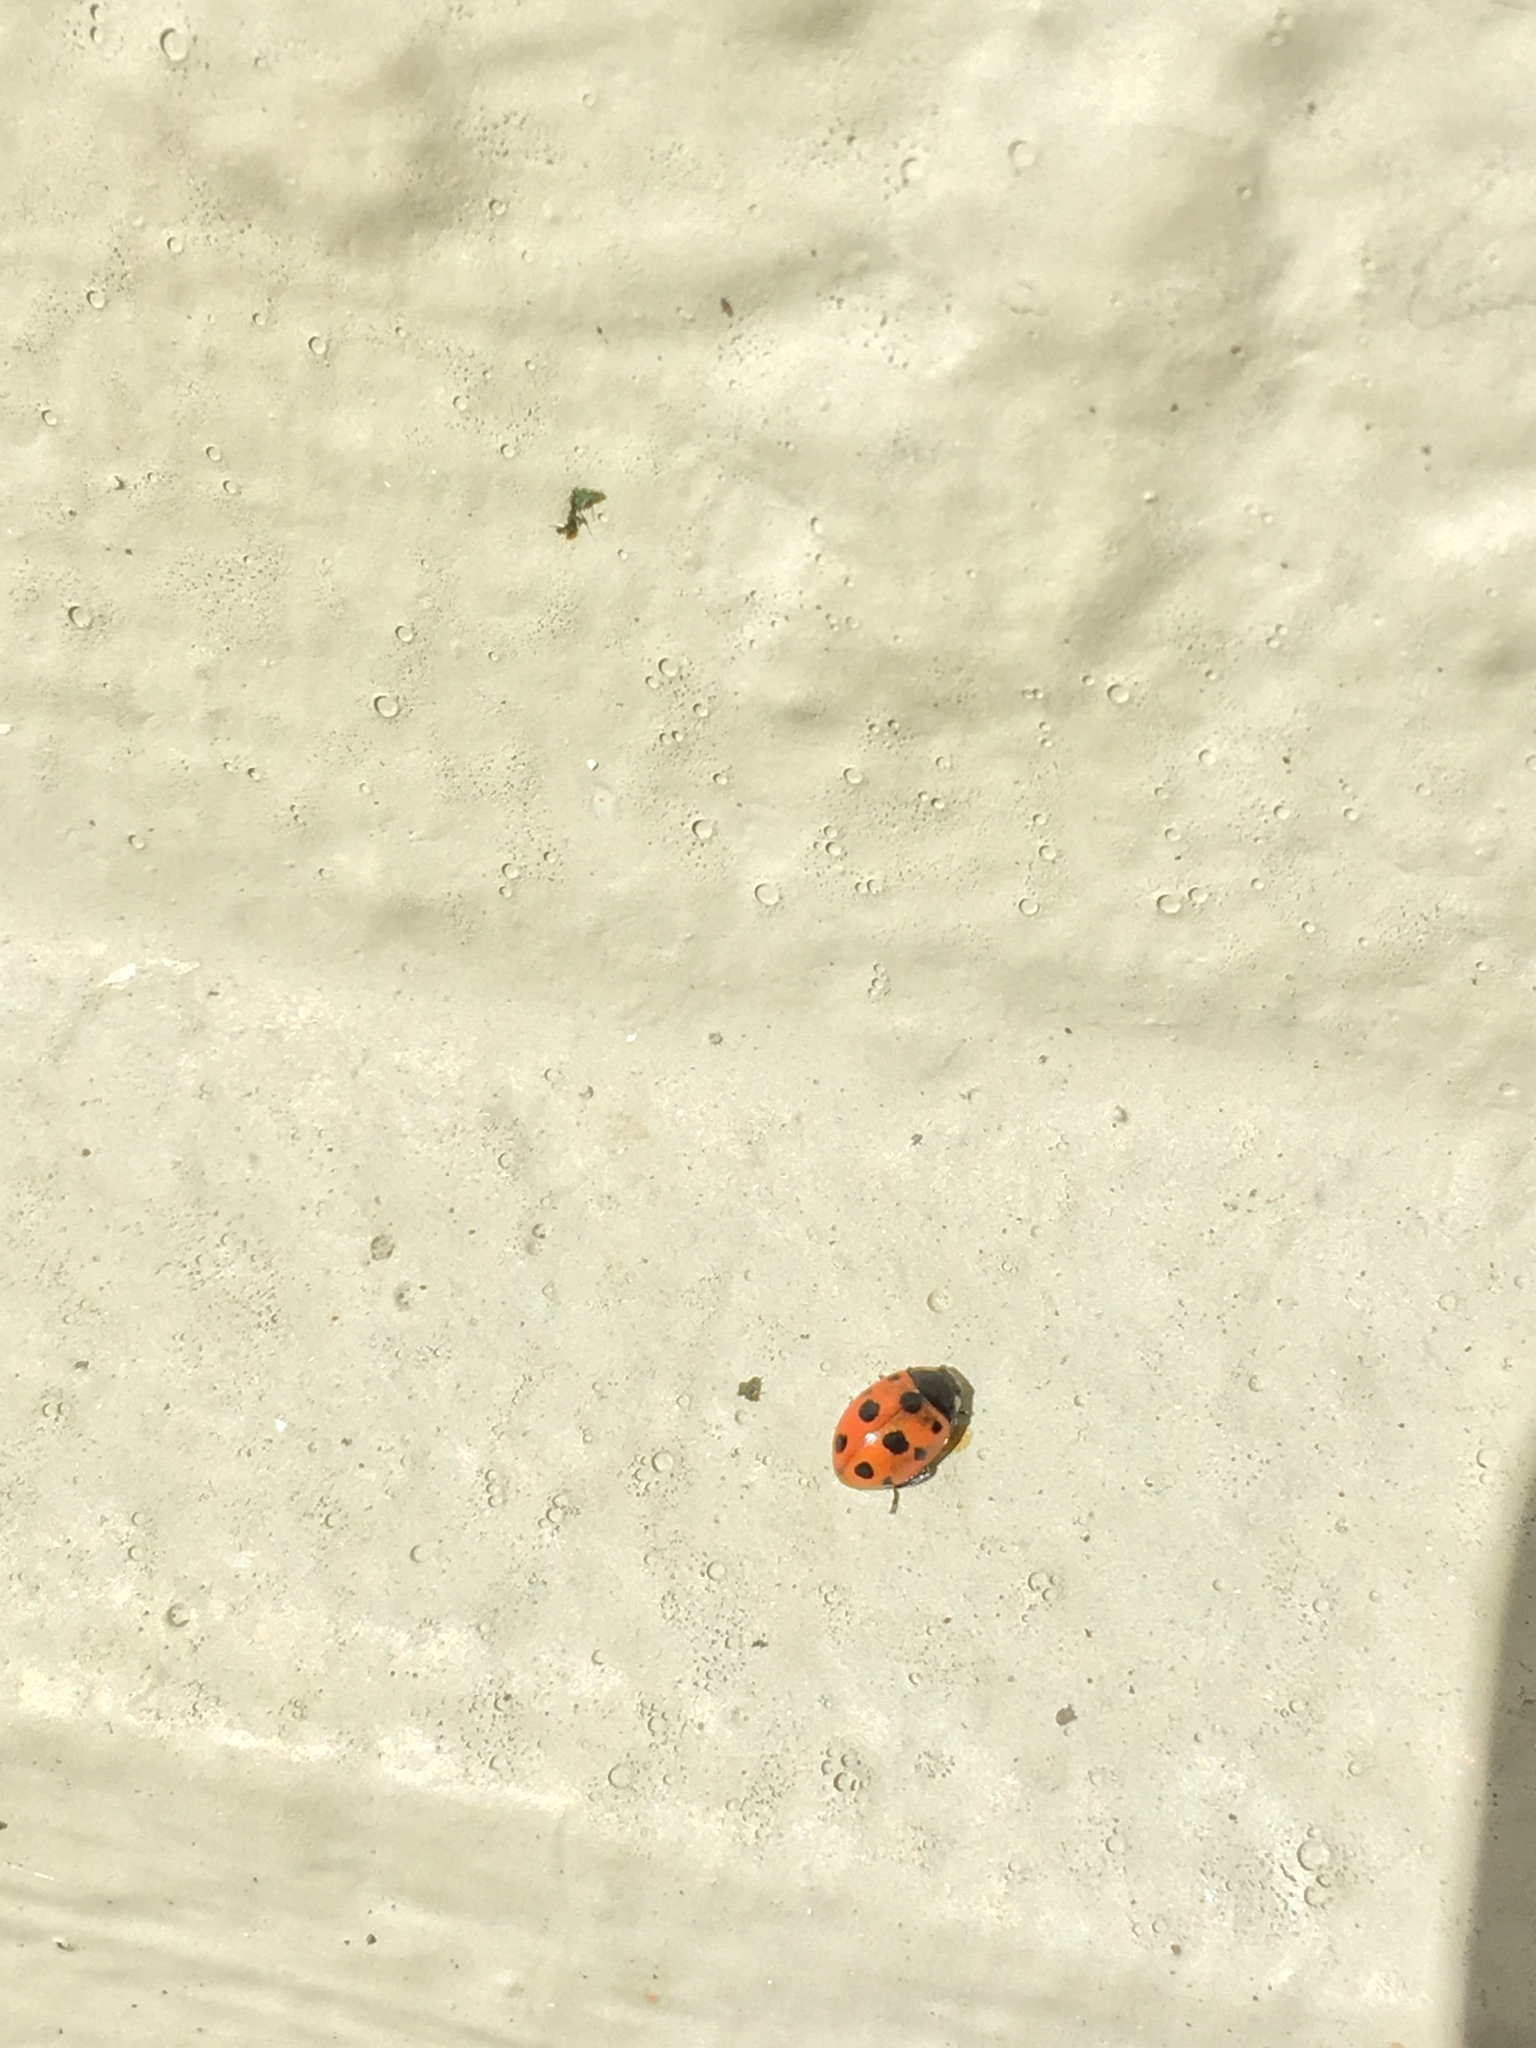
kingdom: Animalia
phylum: Arthropoda
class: Insecta
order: Coleoptera
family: Coccinellidae
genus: Coccinella
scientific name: Coccinella undecimpunctata
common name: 11-spot ladybird
